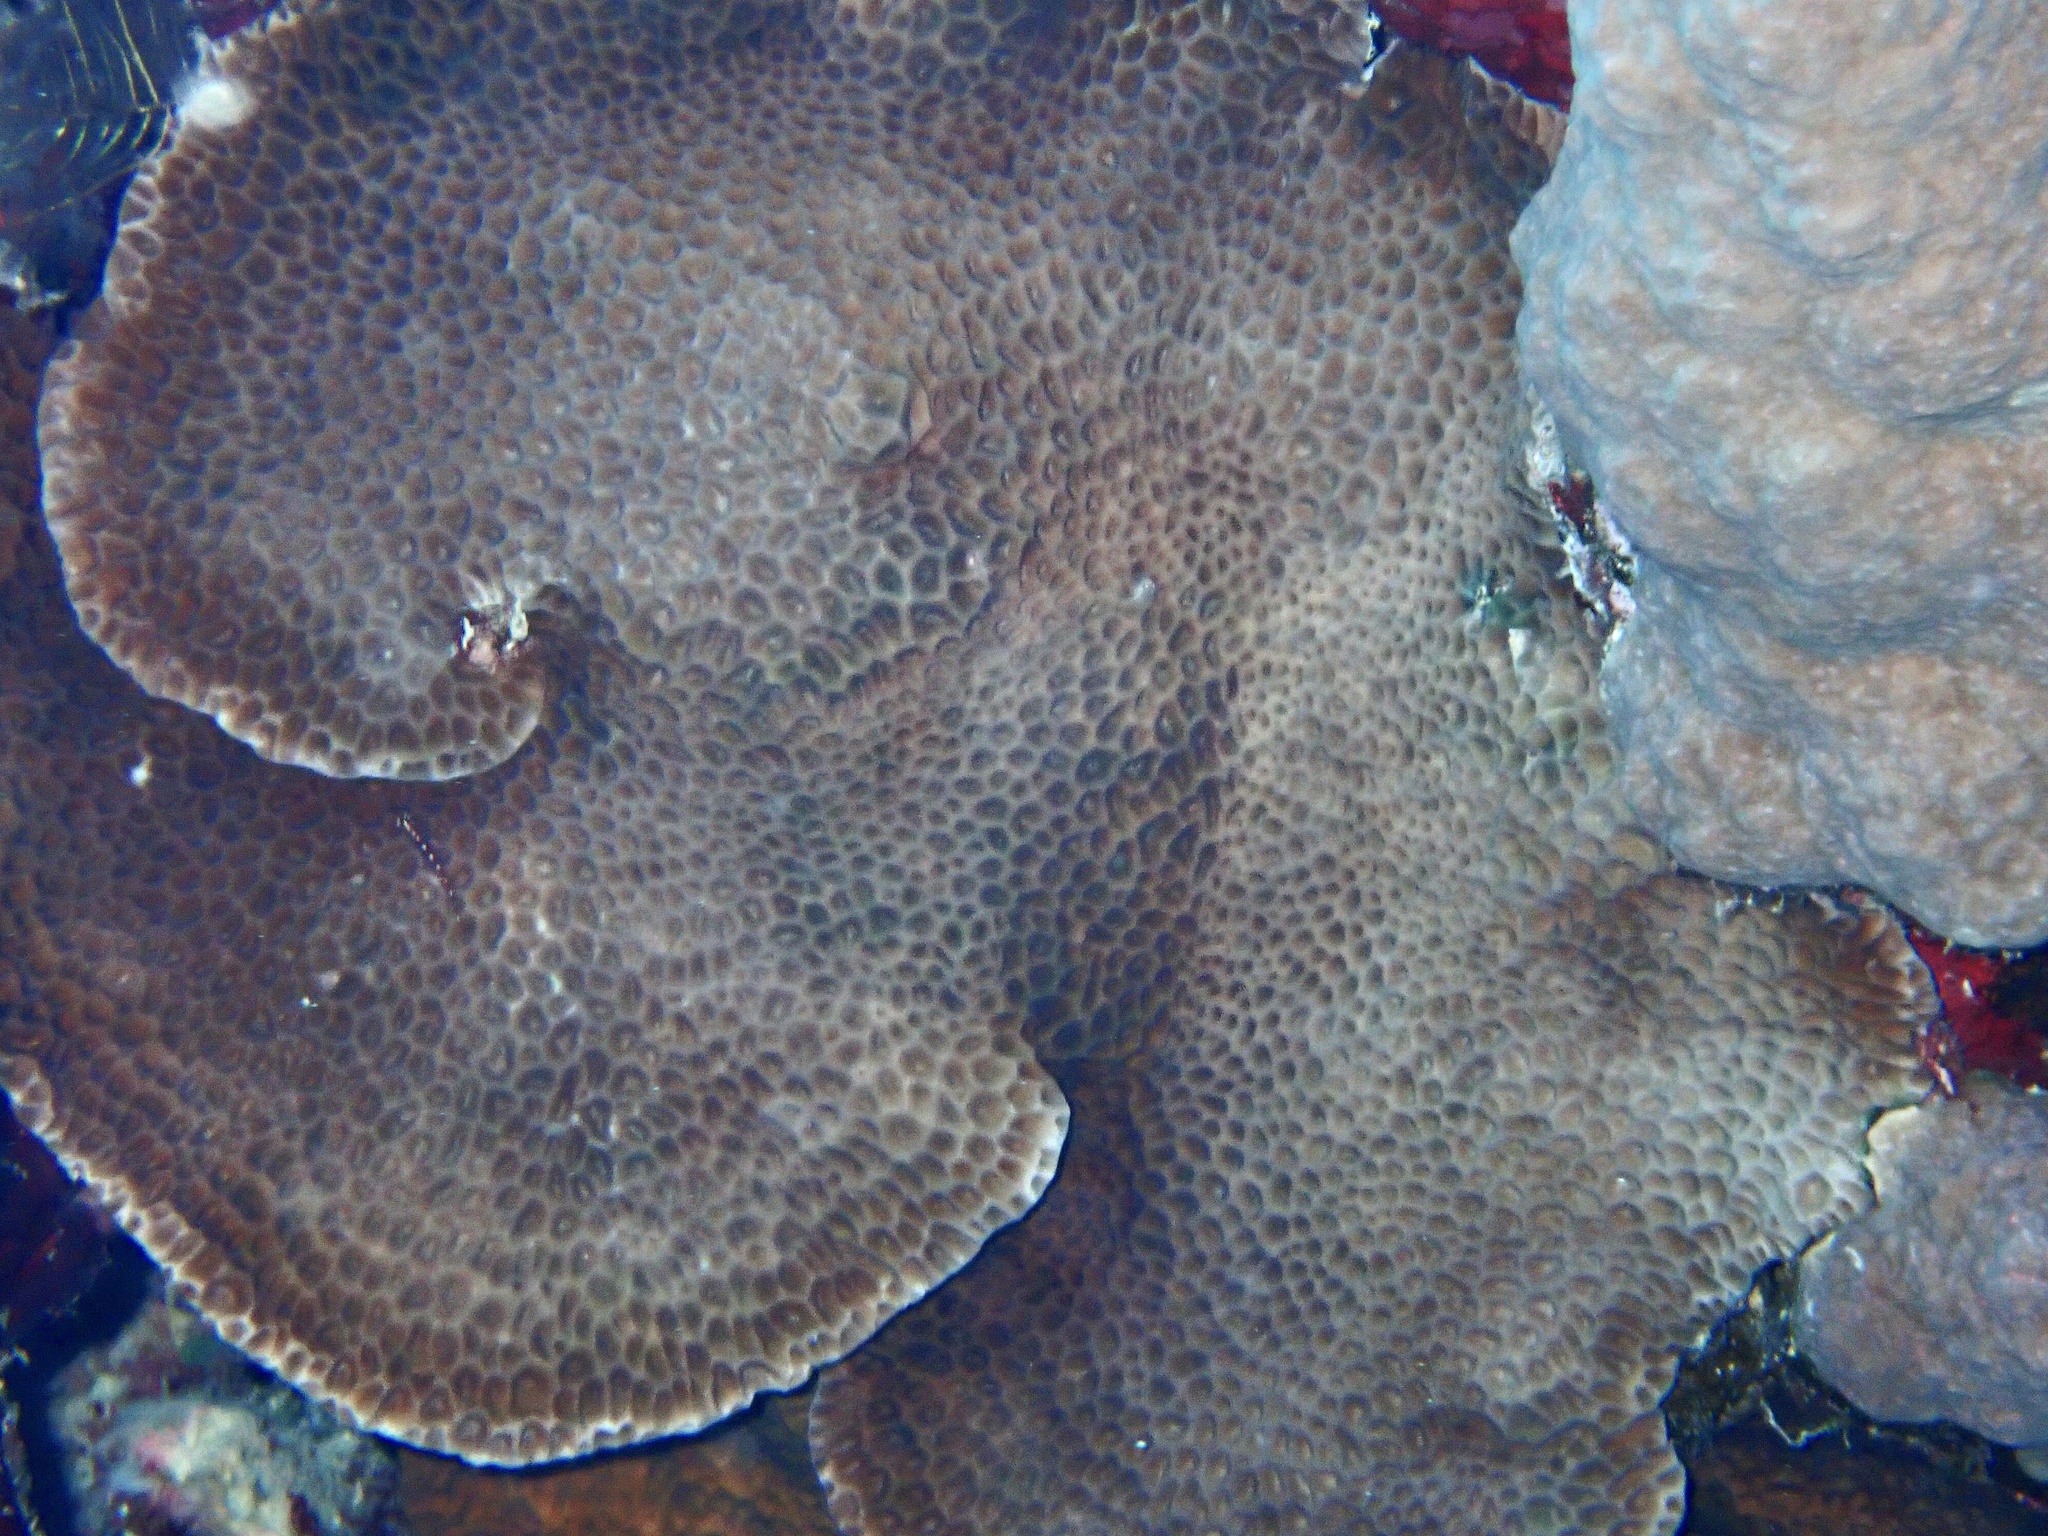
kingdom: Animalia
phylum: Cnidaria
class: Anthozoa
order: Scleractinia
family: Agariciidae
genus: Gardineroseris
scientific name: Gardineroseris planulata
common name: Gardiner's coral
